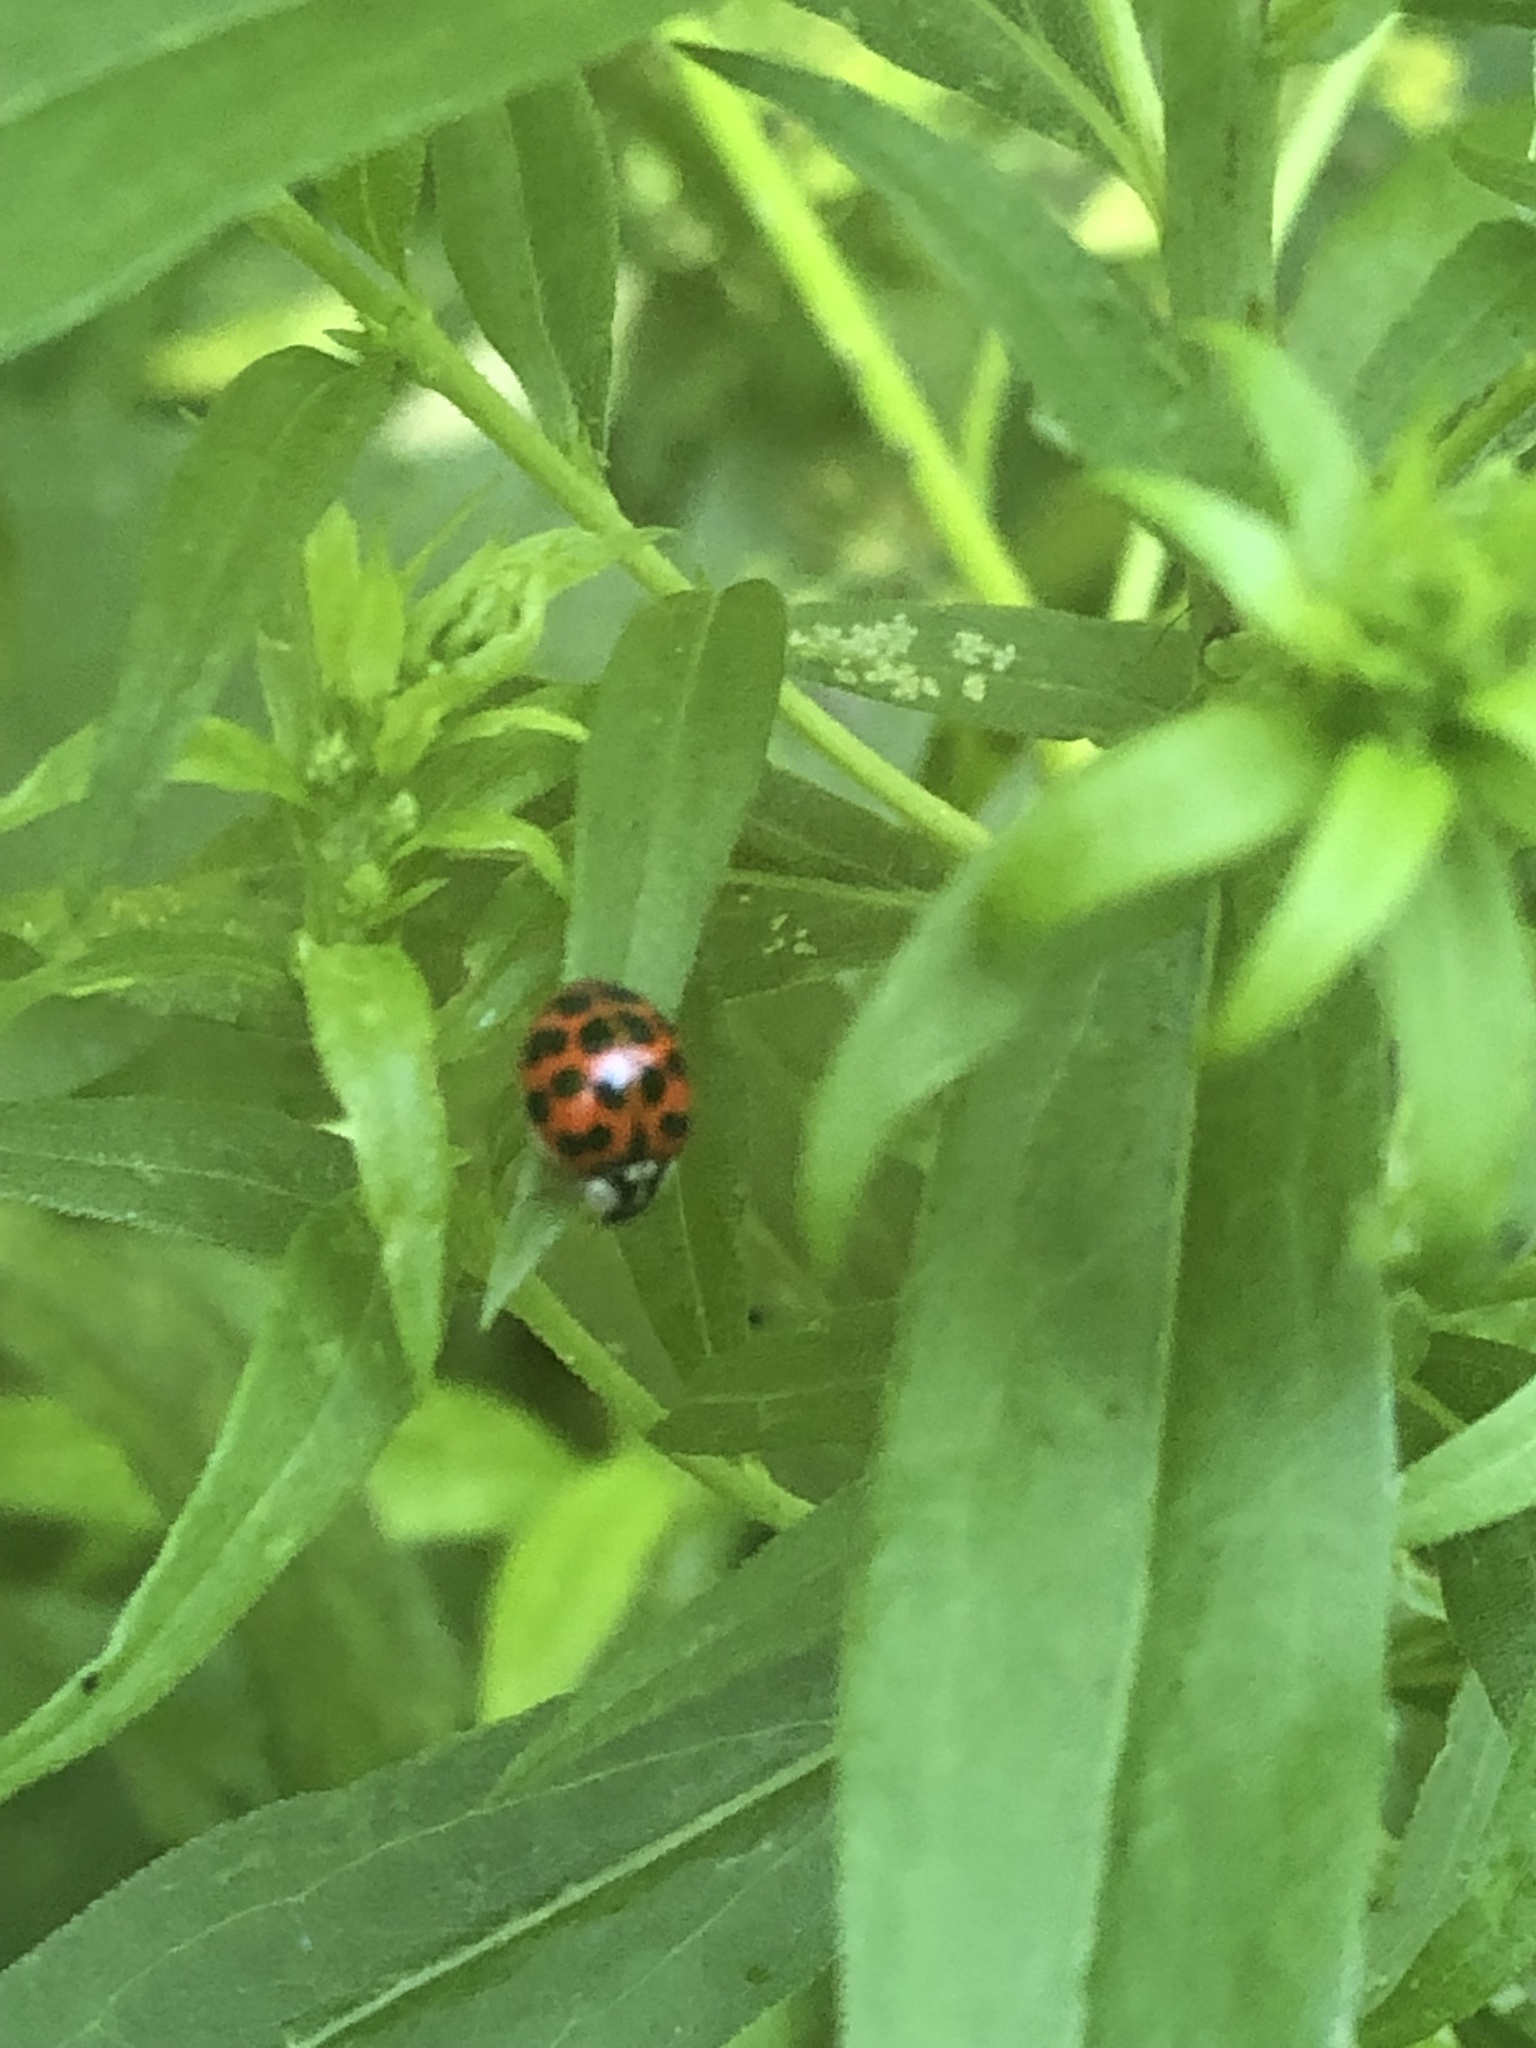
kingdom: Animalia
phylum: Arthropoda
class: Insecta
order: Coleoptera
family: Coccinellidae
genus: Harmonia
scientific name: Harmonia axyridis
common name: Harlequin ladybird
